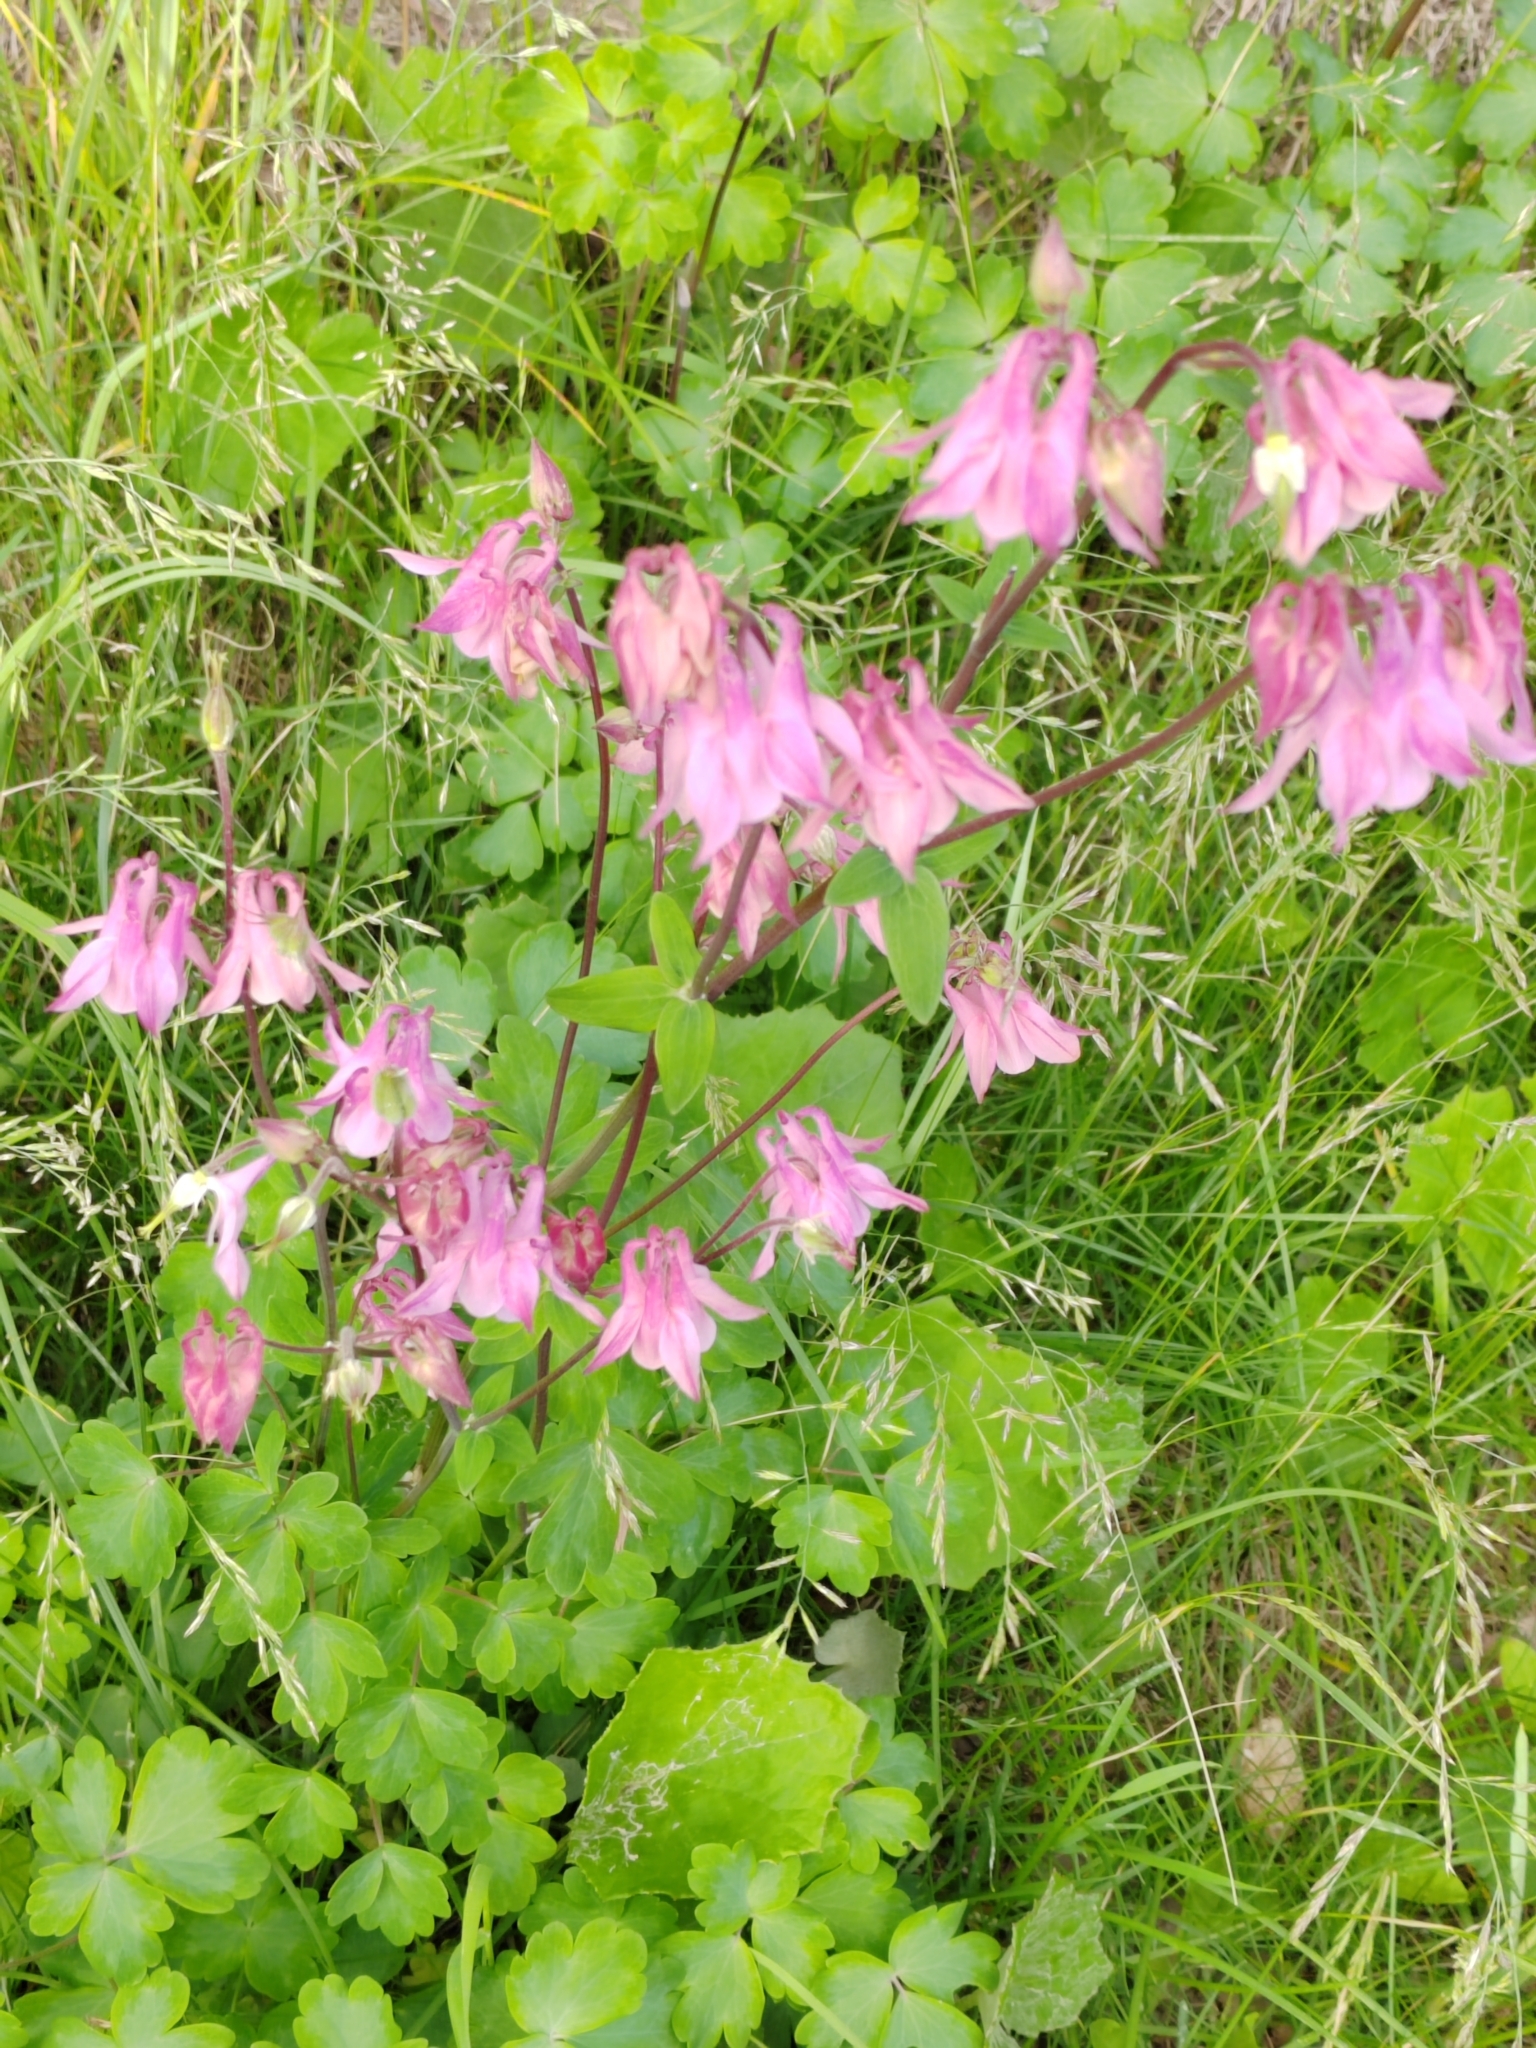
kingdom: Plantae
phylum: Tracheophyta
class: Magnoliopsida
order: Ranunculales
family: Ranunculaceae
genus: Aquilegia
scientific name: Aquilegia vulgaris
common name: Columbine
